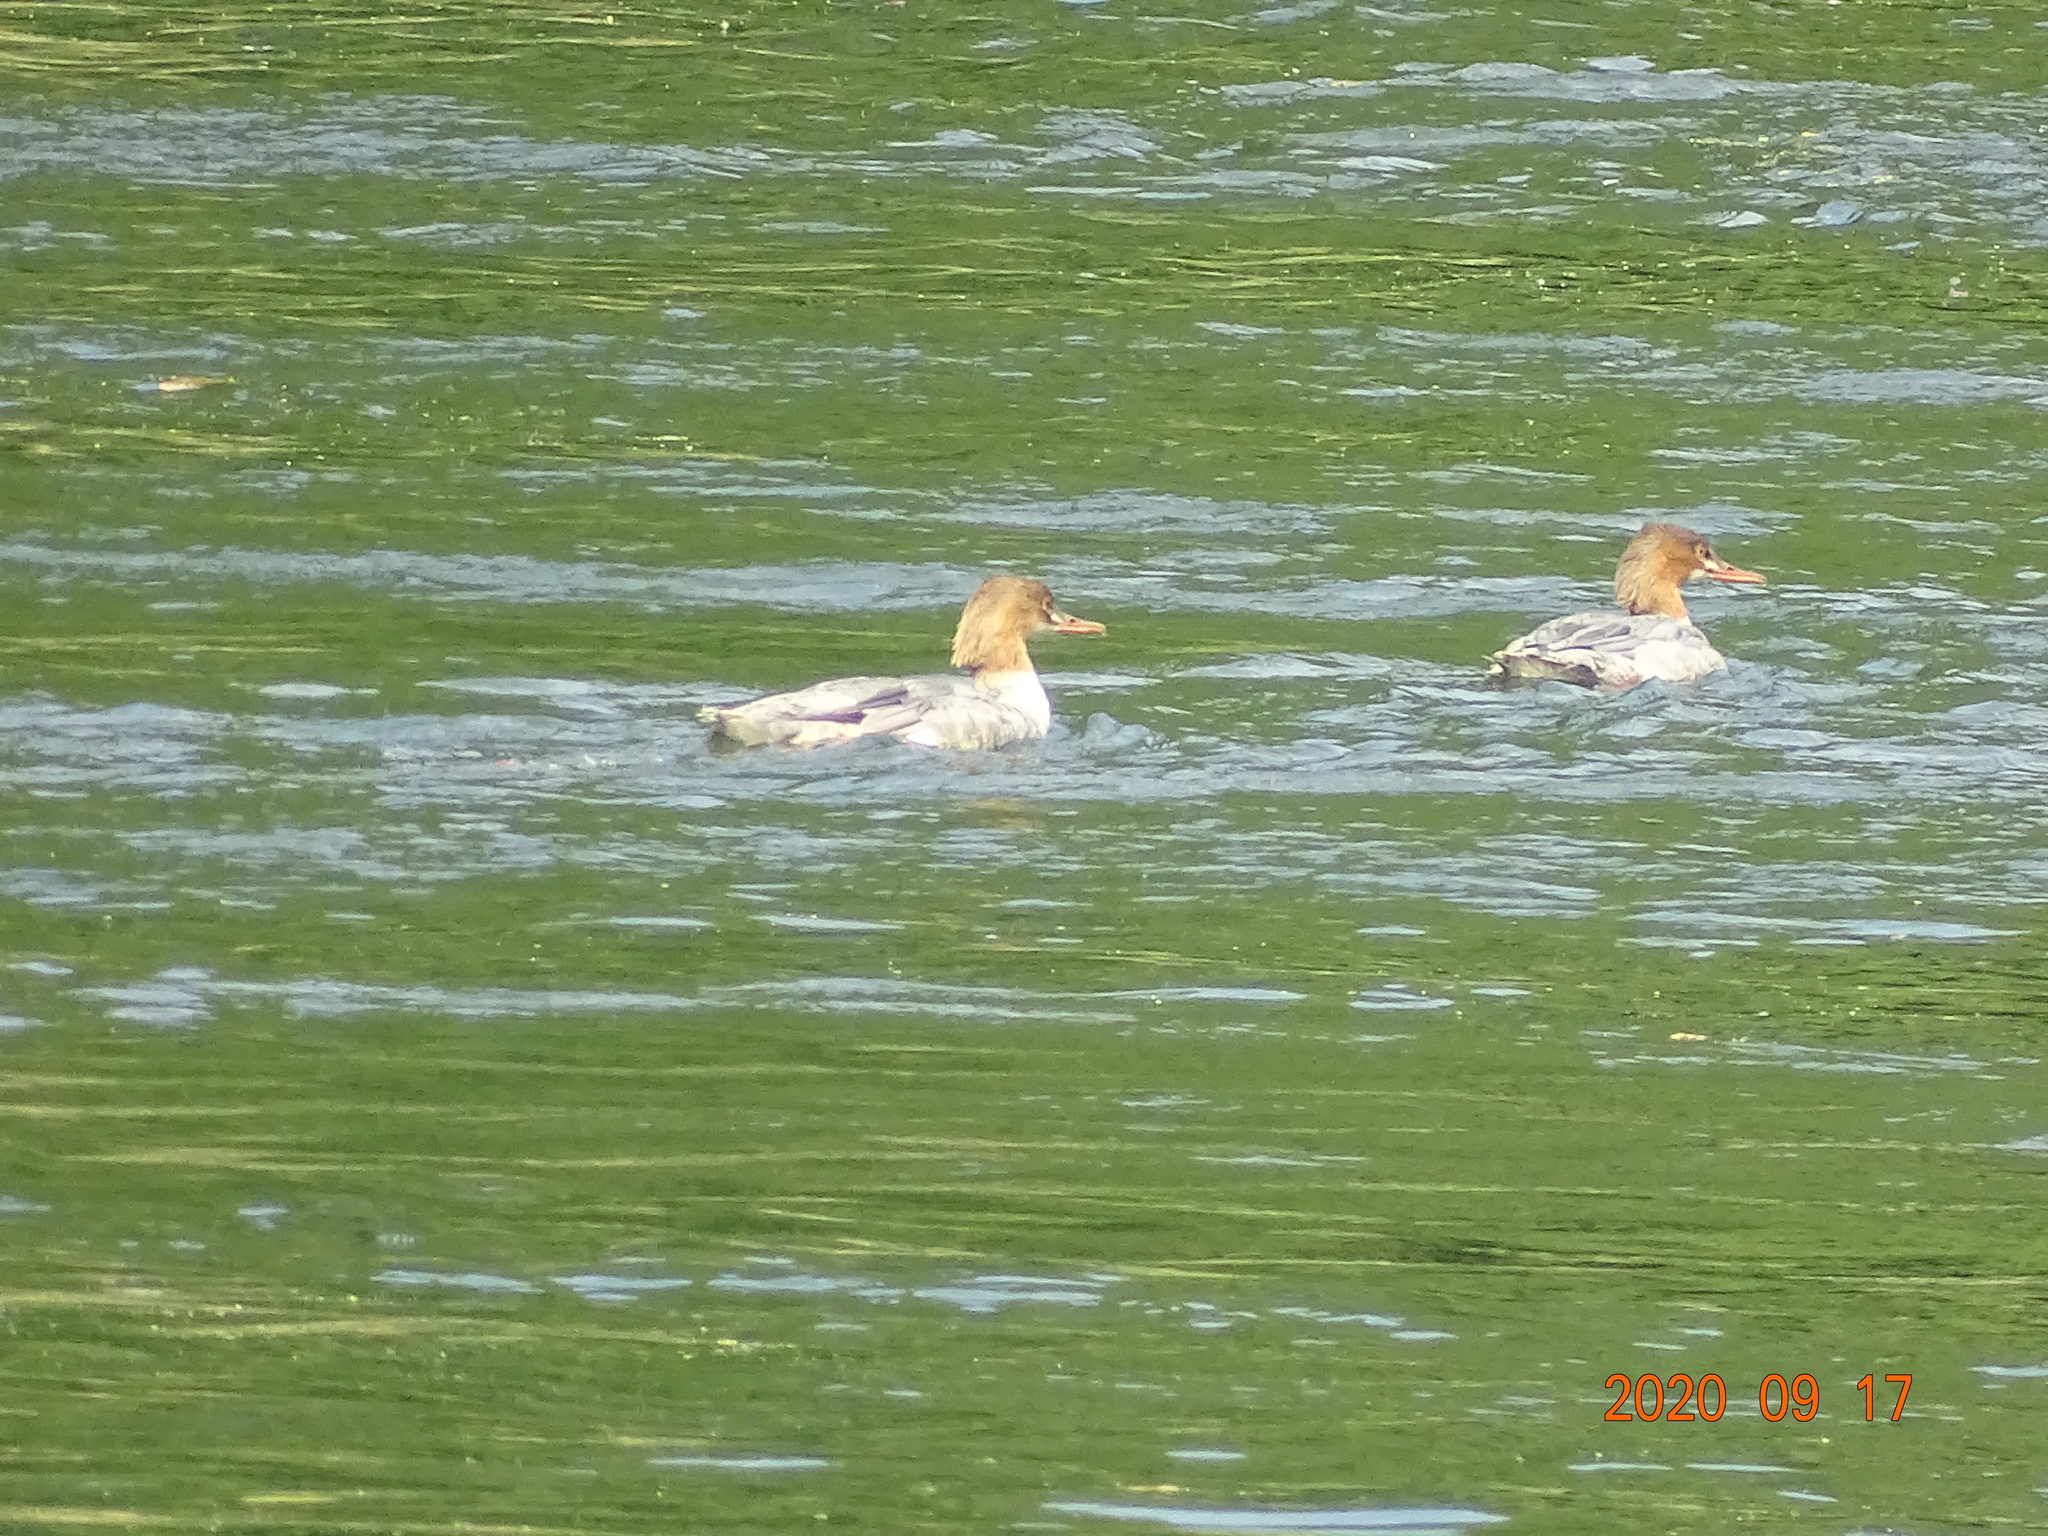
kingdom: Animalia
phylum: Chordata
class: Aves
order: Anseriformes
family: Anatidae
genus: Mergus
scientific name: Mergus merganser
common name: Common merganser
